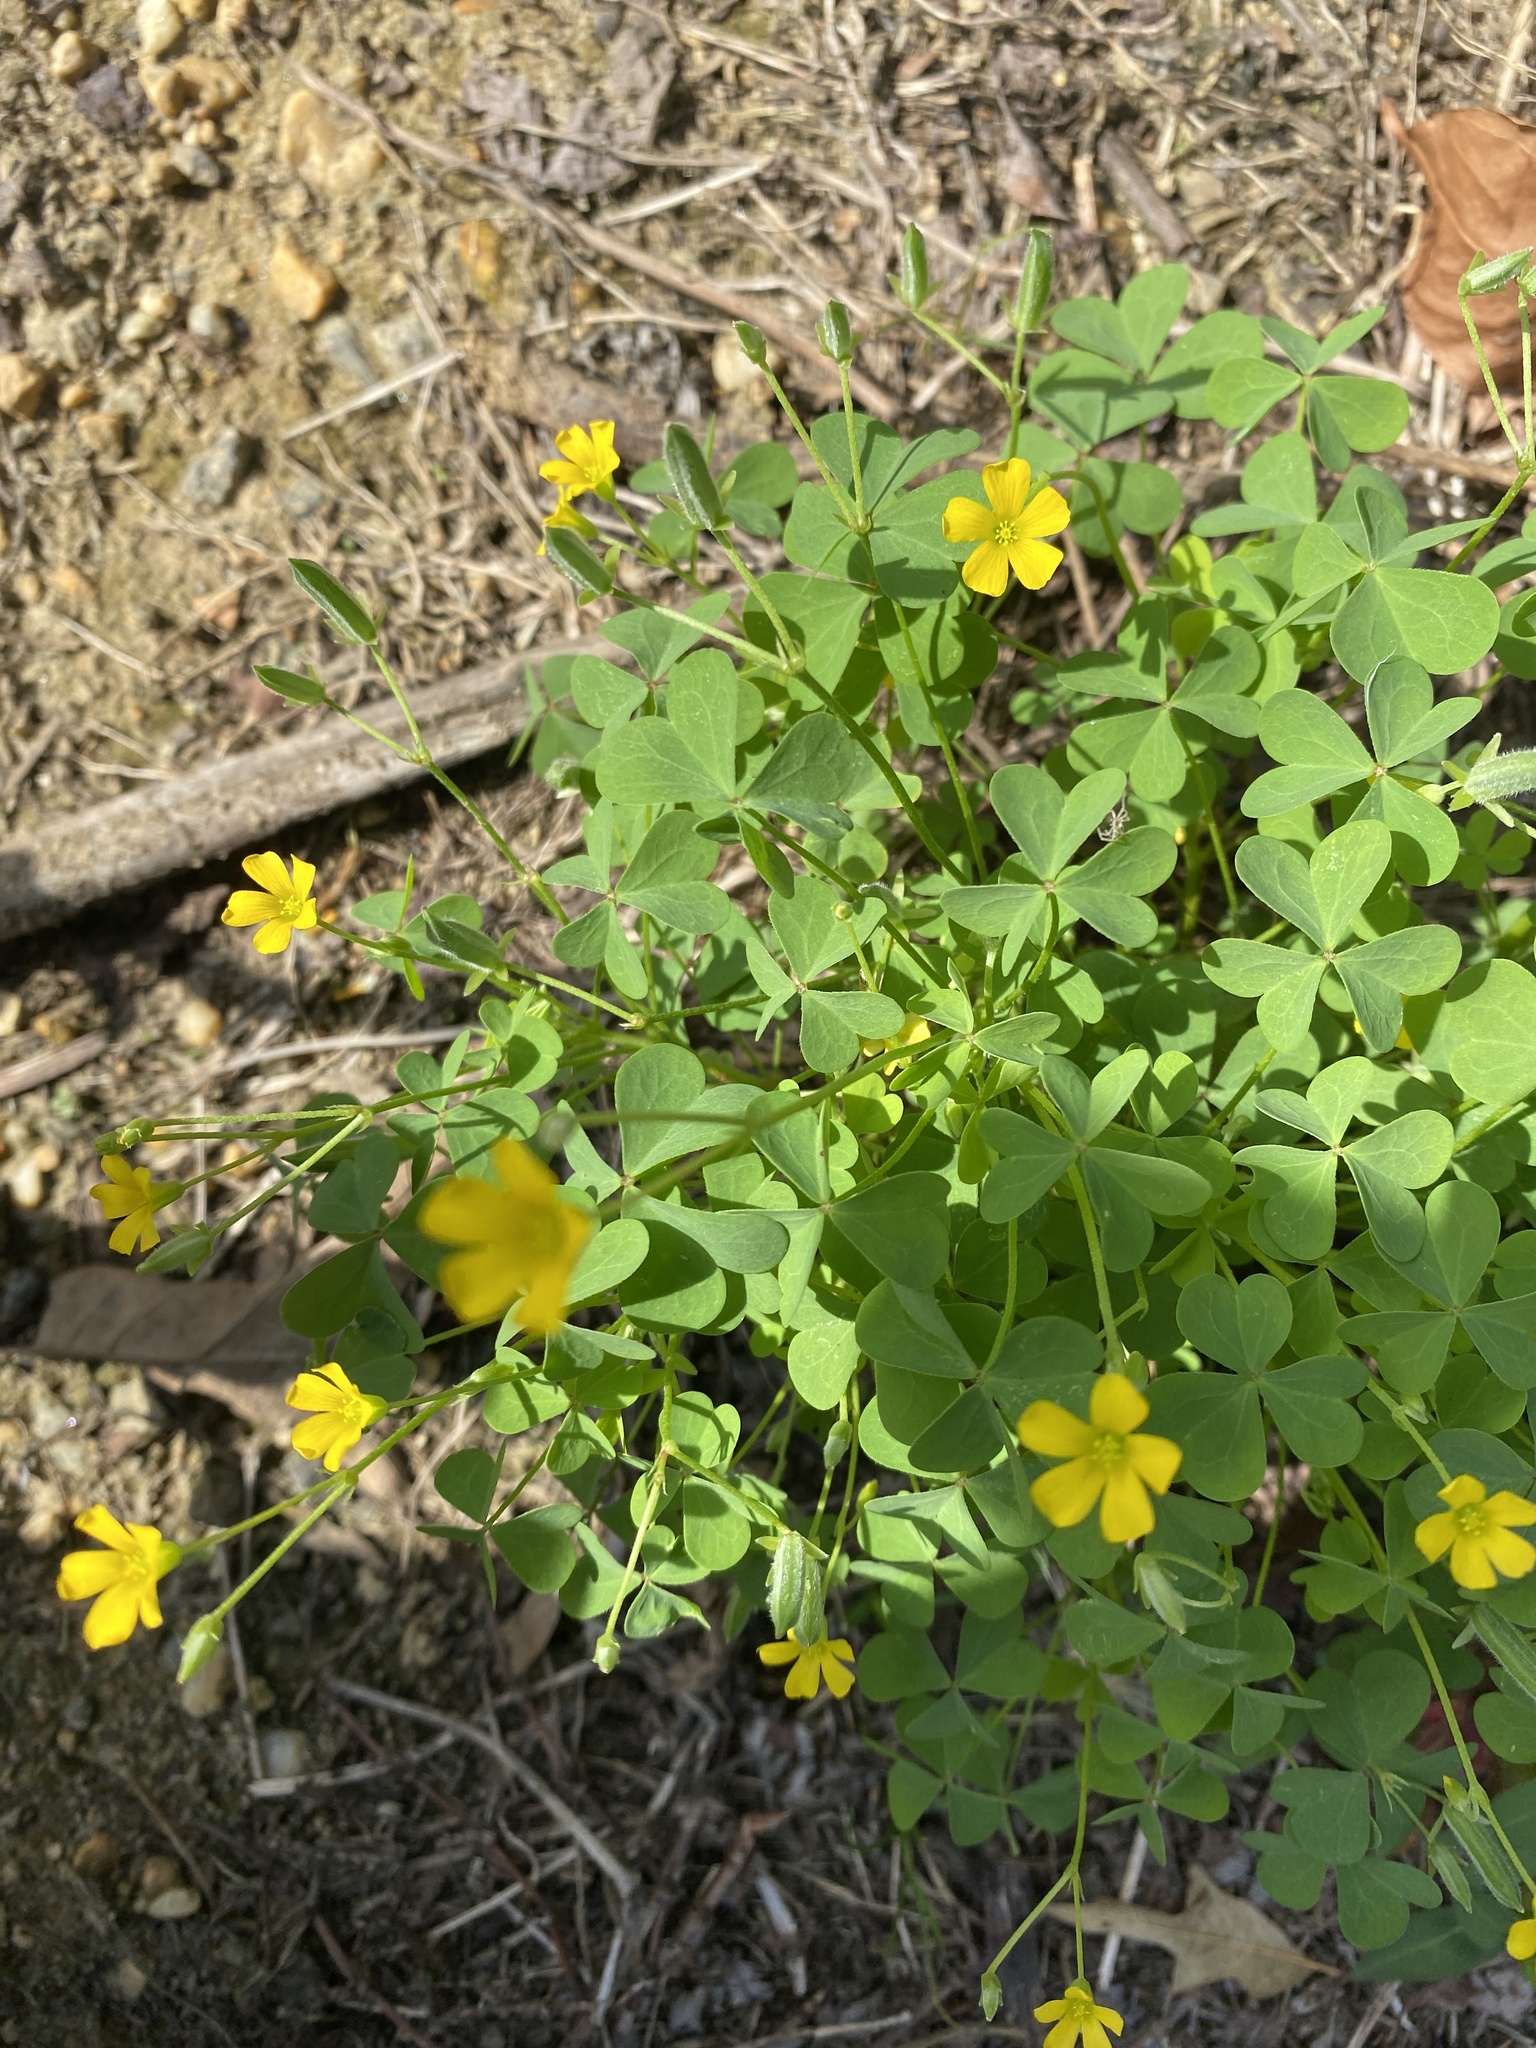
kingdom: Plantae
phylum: Tracheophyta
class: Magnoliopsida
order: Oxalidales
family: Oxalidaceae
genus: Oxalis
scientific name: Oxalis dillenii
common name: Sussex yellow-sorrel
